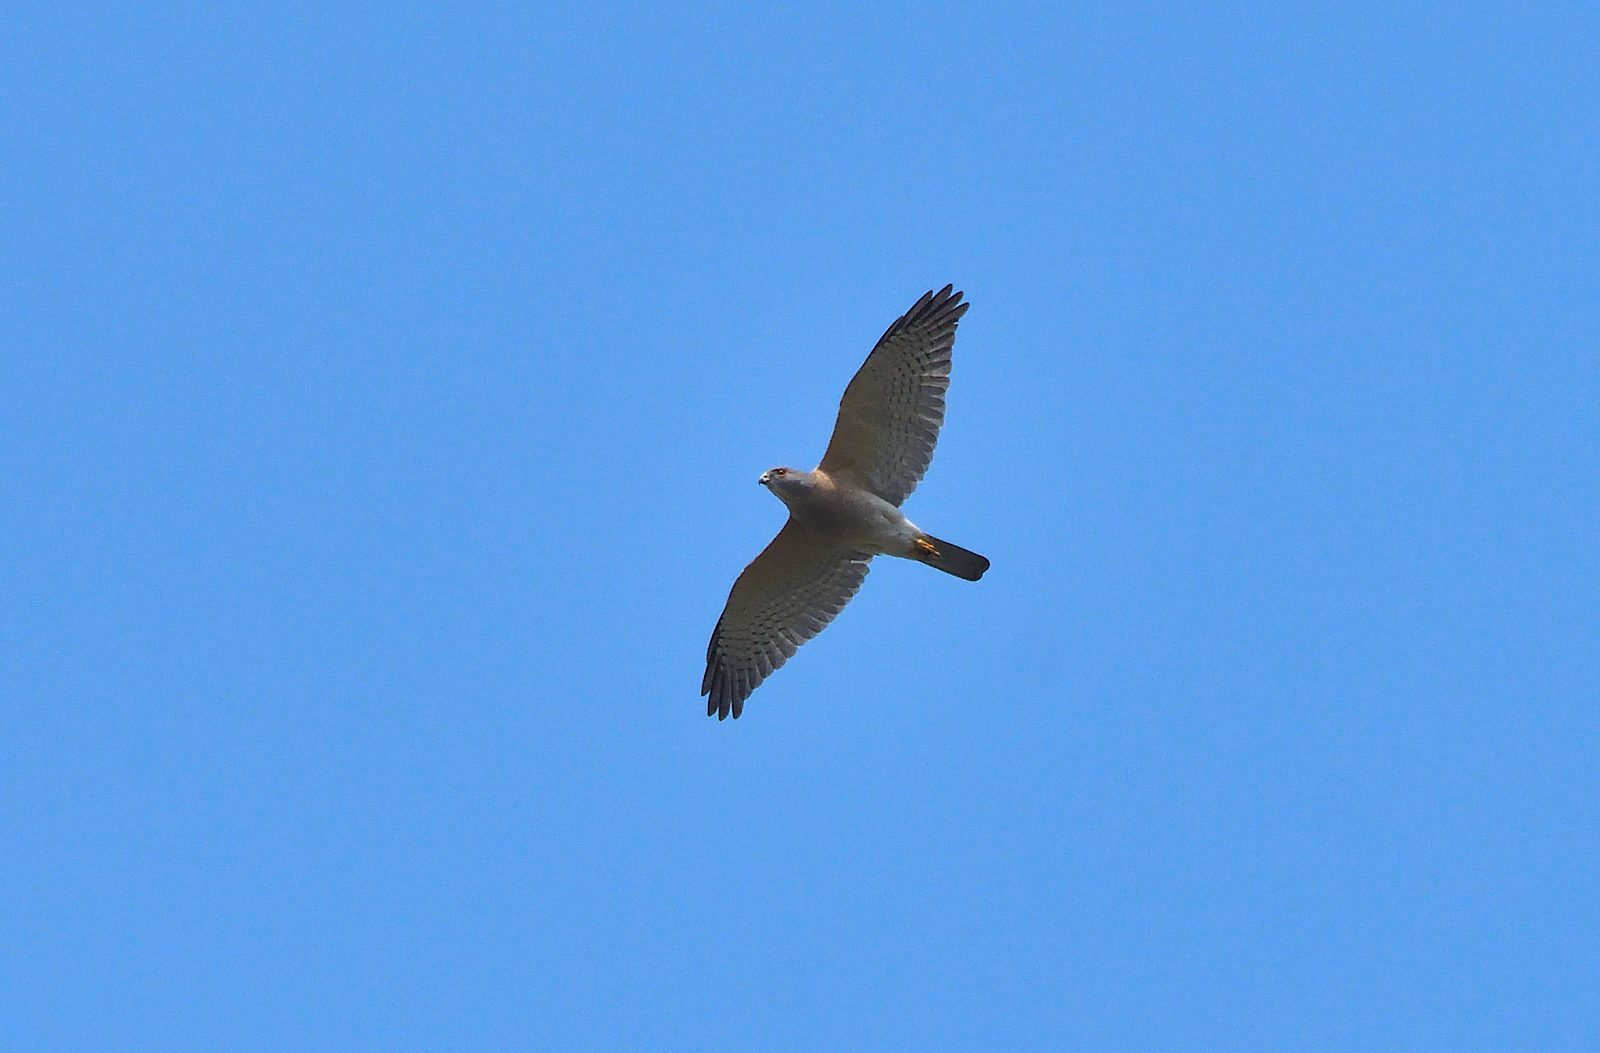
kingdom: Animalia
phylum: Chordata
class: Aves
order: Accipitriformes
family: Accipitridae
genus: Accipiter
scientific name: Accipiter badius
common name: Shikra
